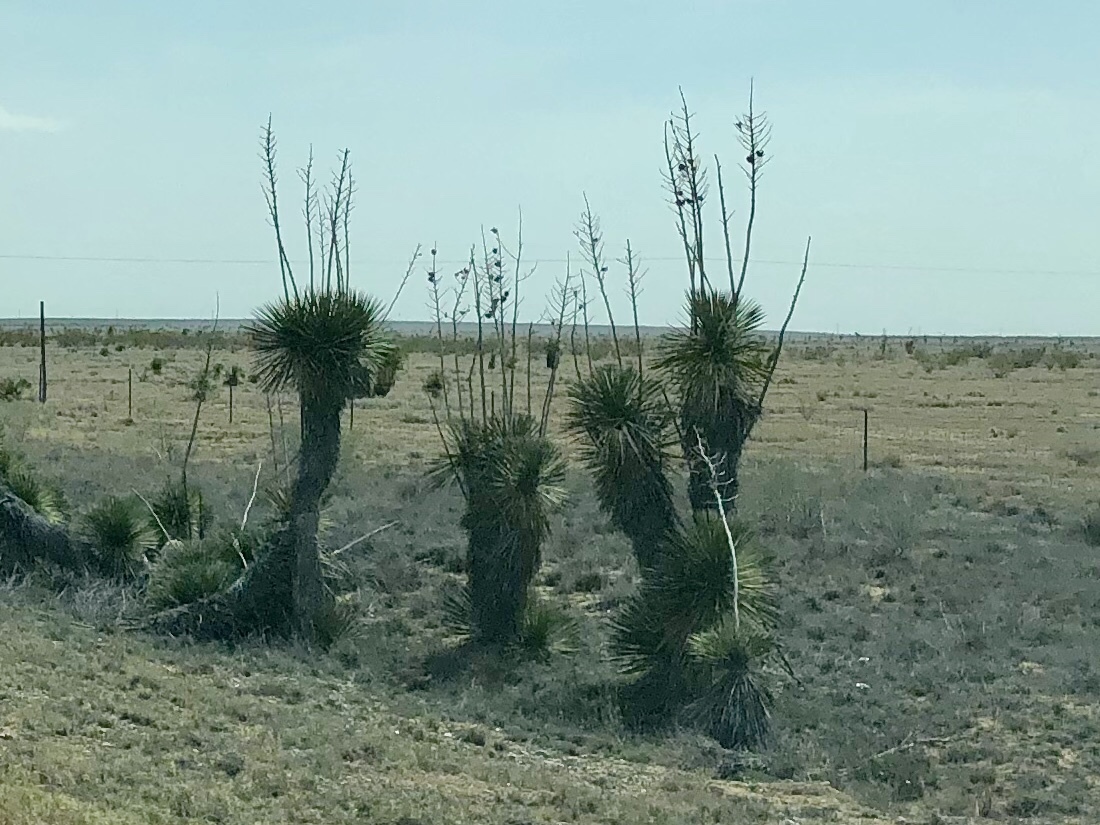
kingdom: Plantae
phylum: Tracheophyta
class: Liliopsida
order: Asparagales
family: Asparagaceae
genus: Yucca
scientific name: Yucca elata
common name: Palmella
